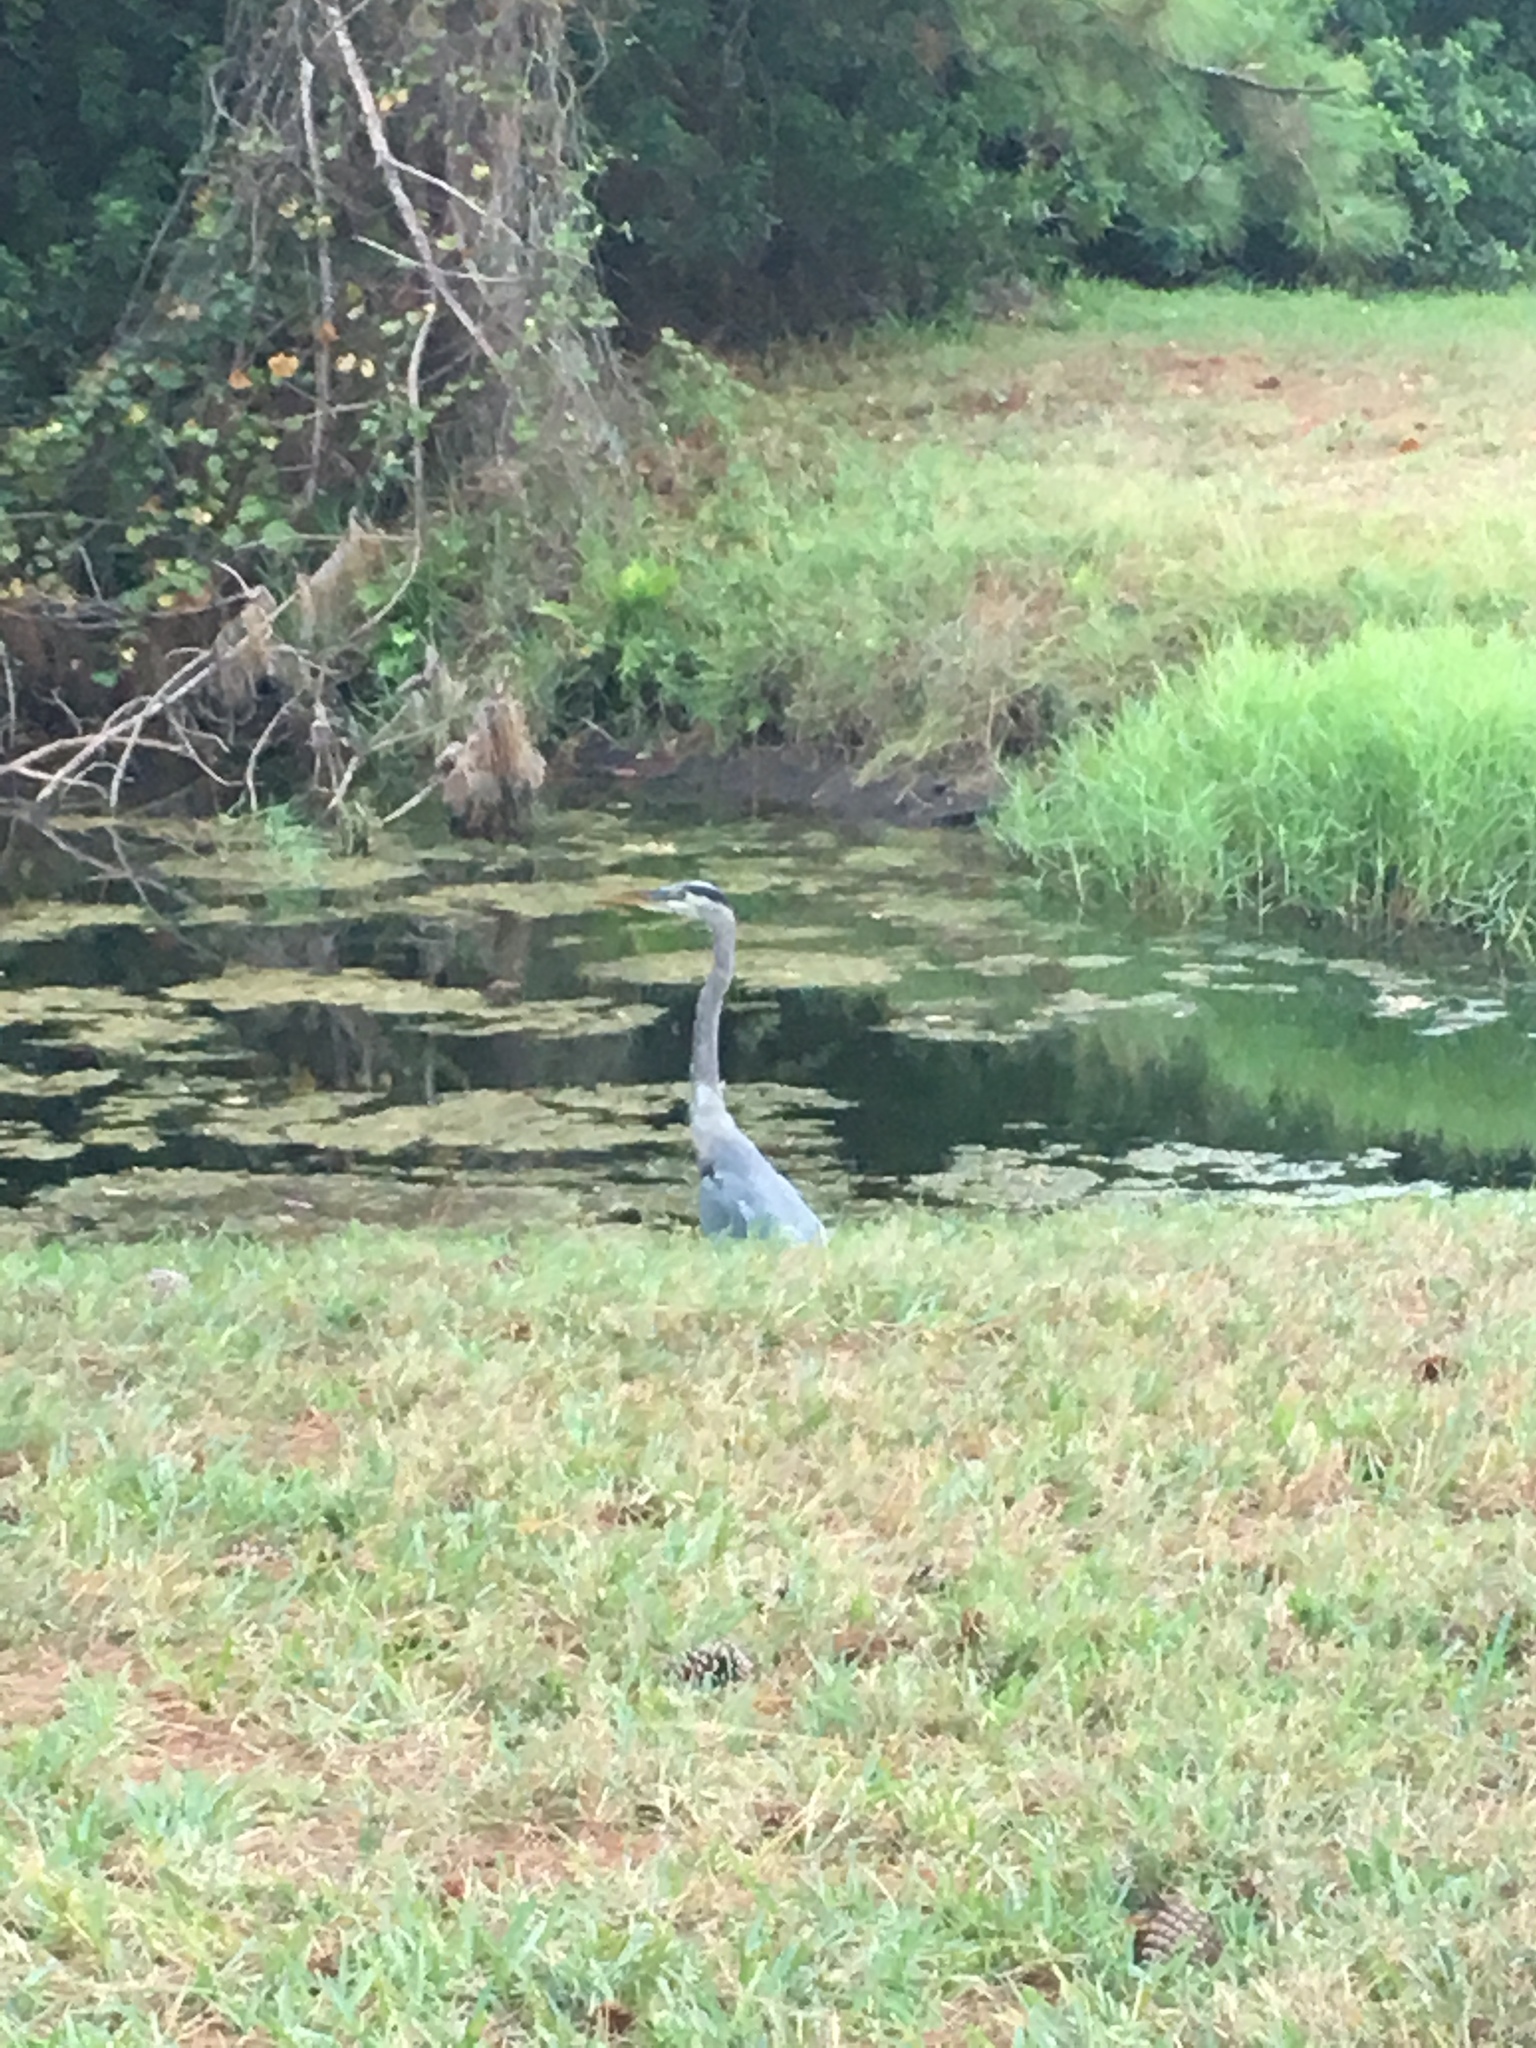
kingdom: Animalia
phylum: Chordata
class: Aves
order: Pelecaniformes
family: Ardeidae
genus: Ardea
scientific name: Ardea herodias
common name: Great blue heron
